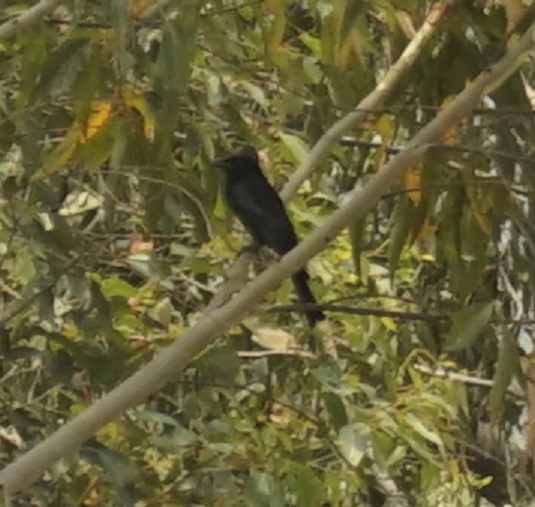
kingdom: Animalia
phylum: Chordata
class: Aves
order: Passeriformes
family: Dicruridae
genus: Dicrurus
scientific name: Dicrurus bracteatus
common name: Spangled drongo
